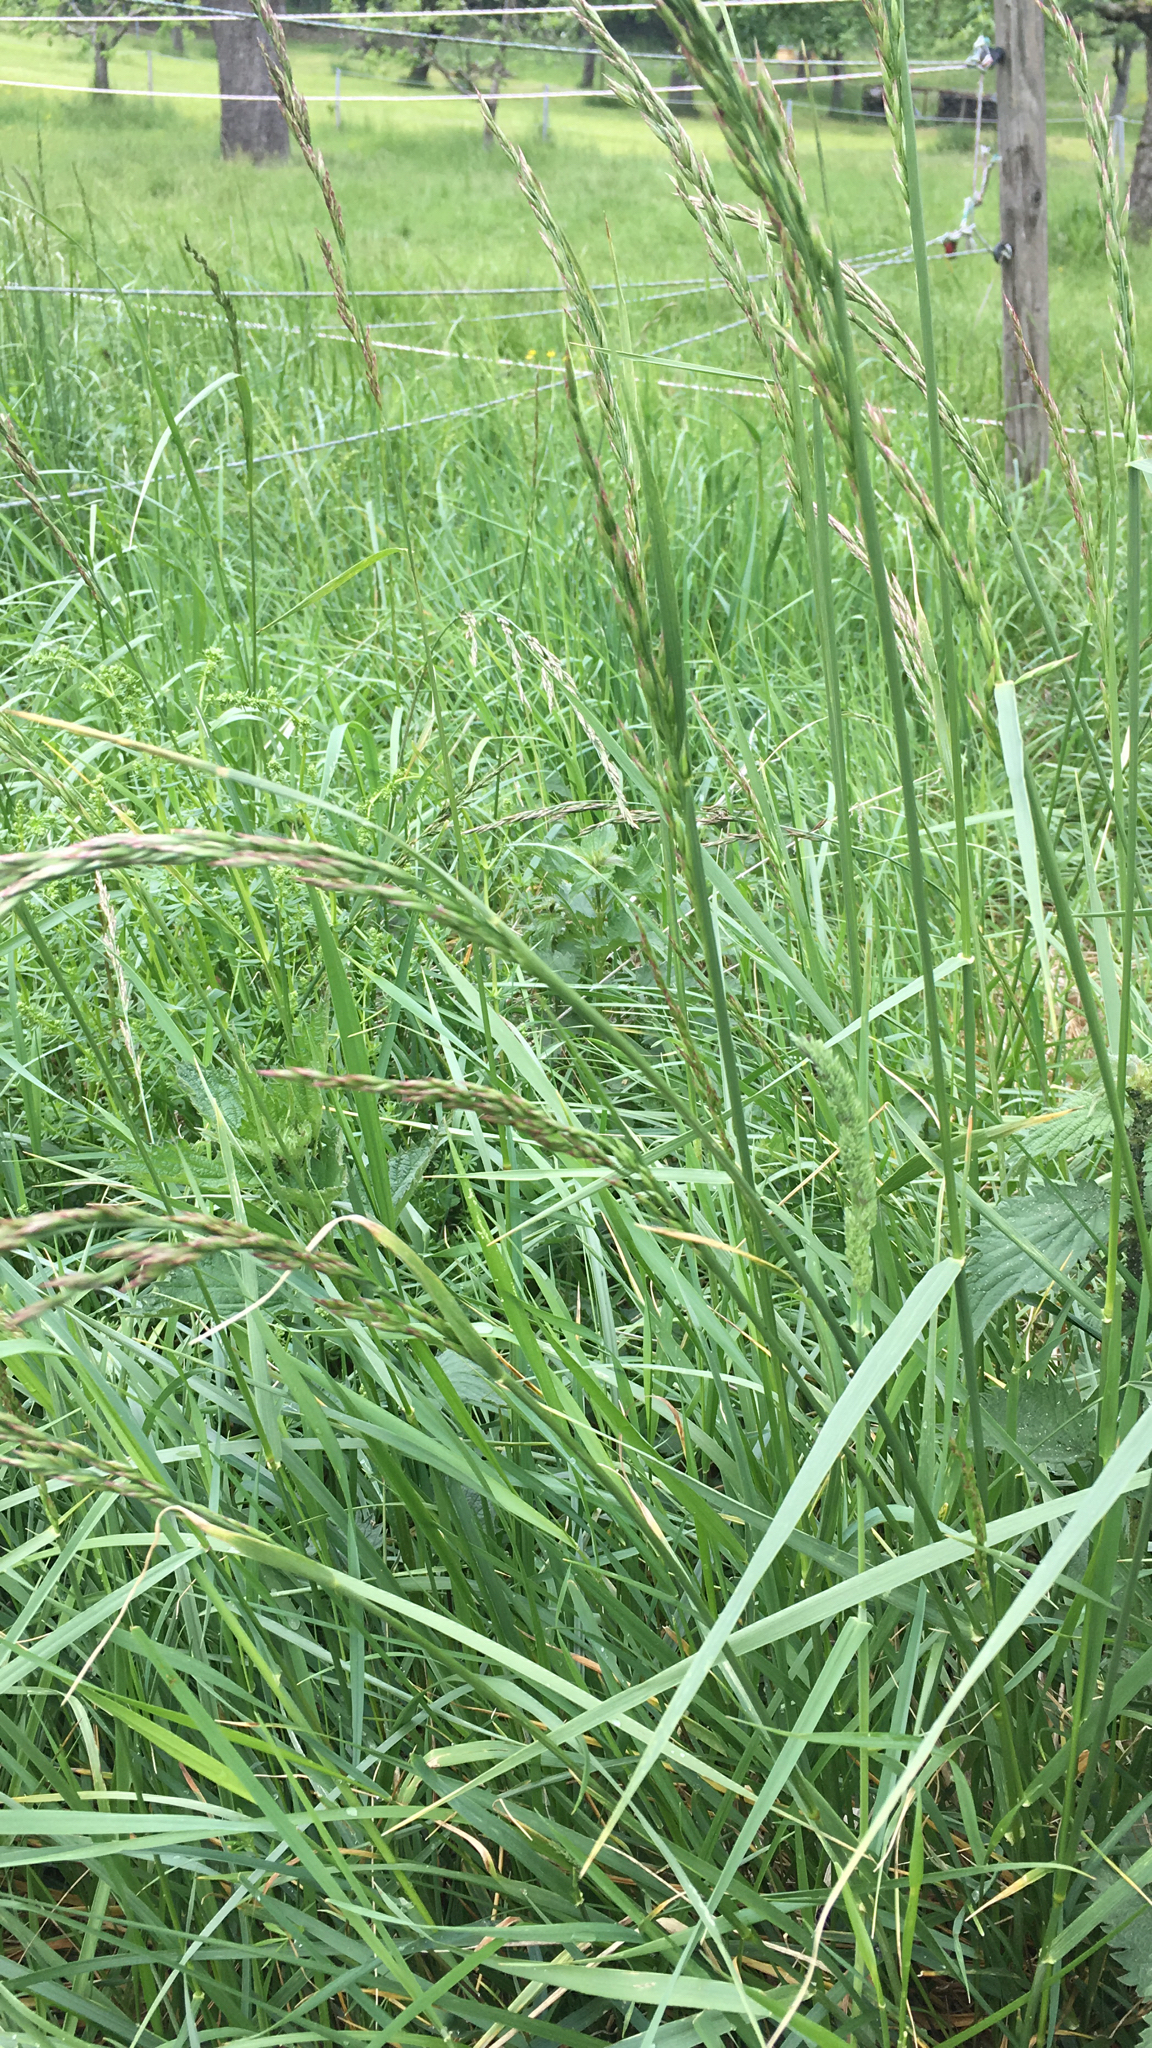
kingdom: Plantae
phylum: Tracheophyta
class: Liliopsida
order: Poales
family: Poaceae
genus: Lolium
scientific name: Lolium arundinaceum
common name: Reed fescue
